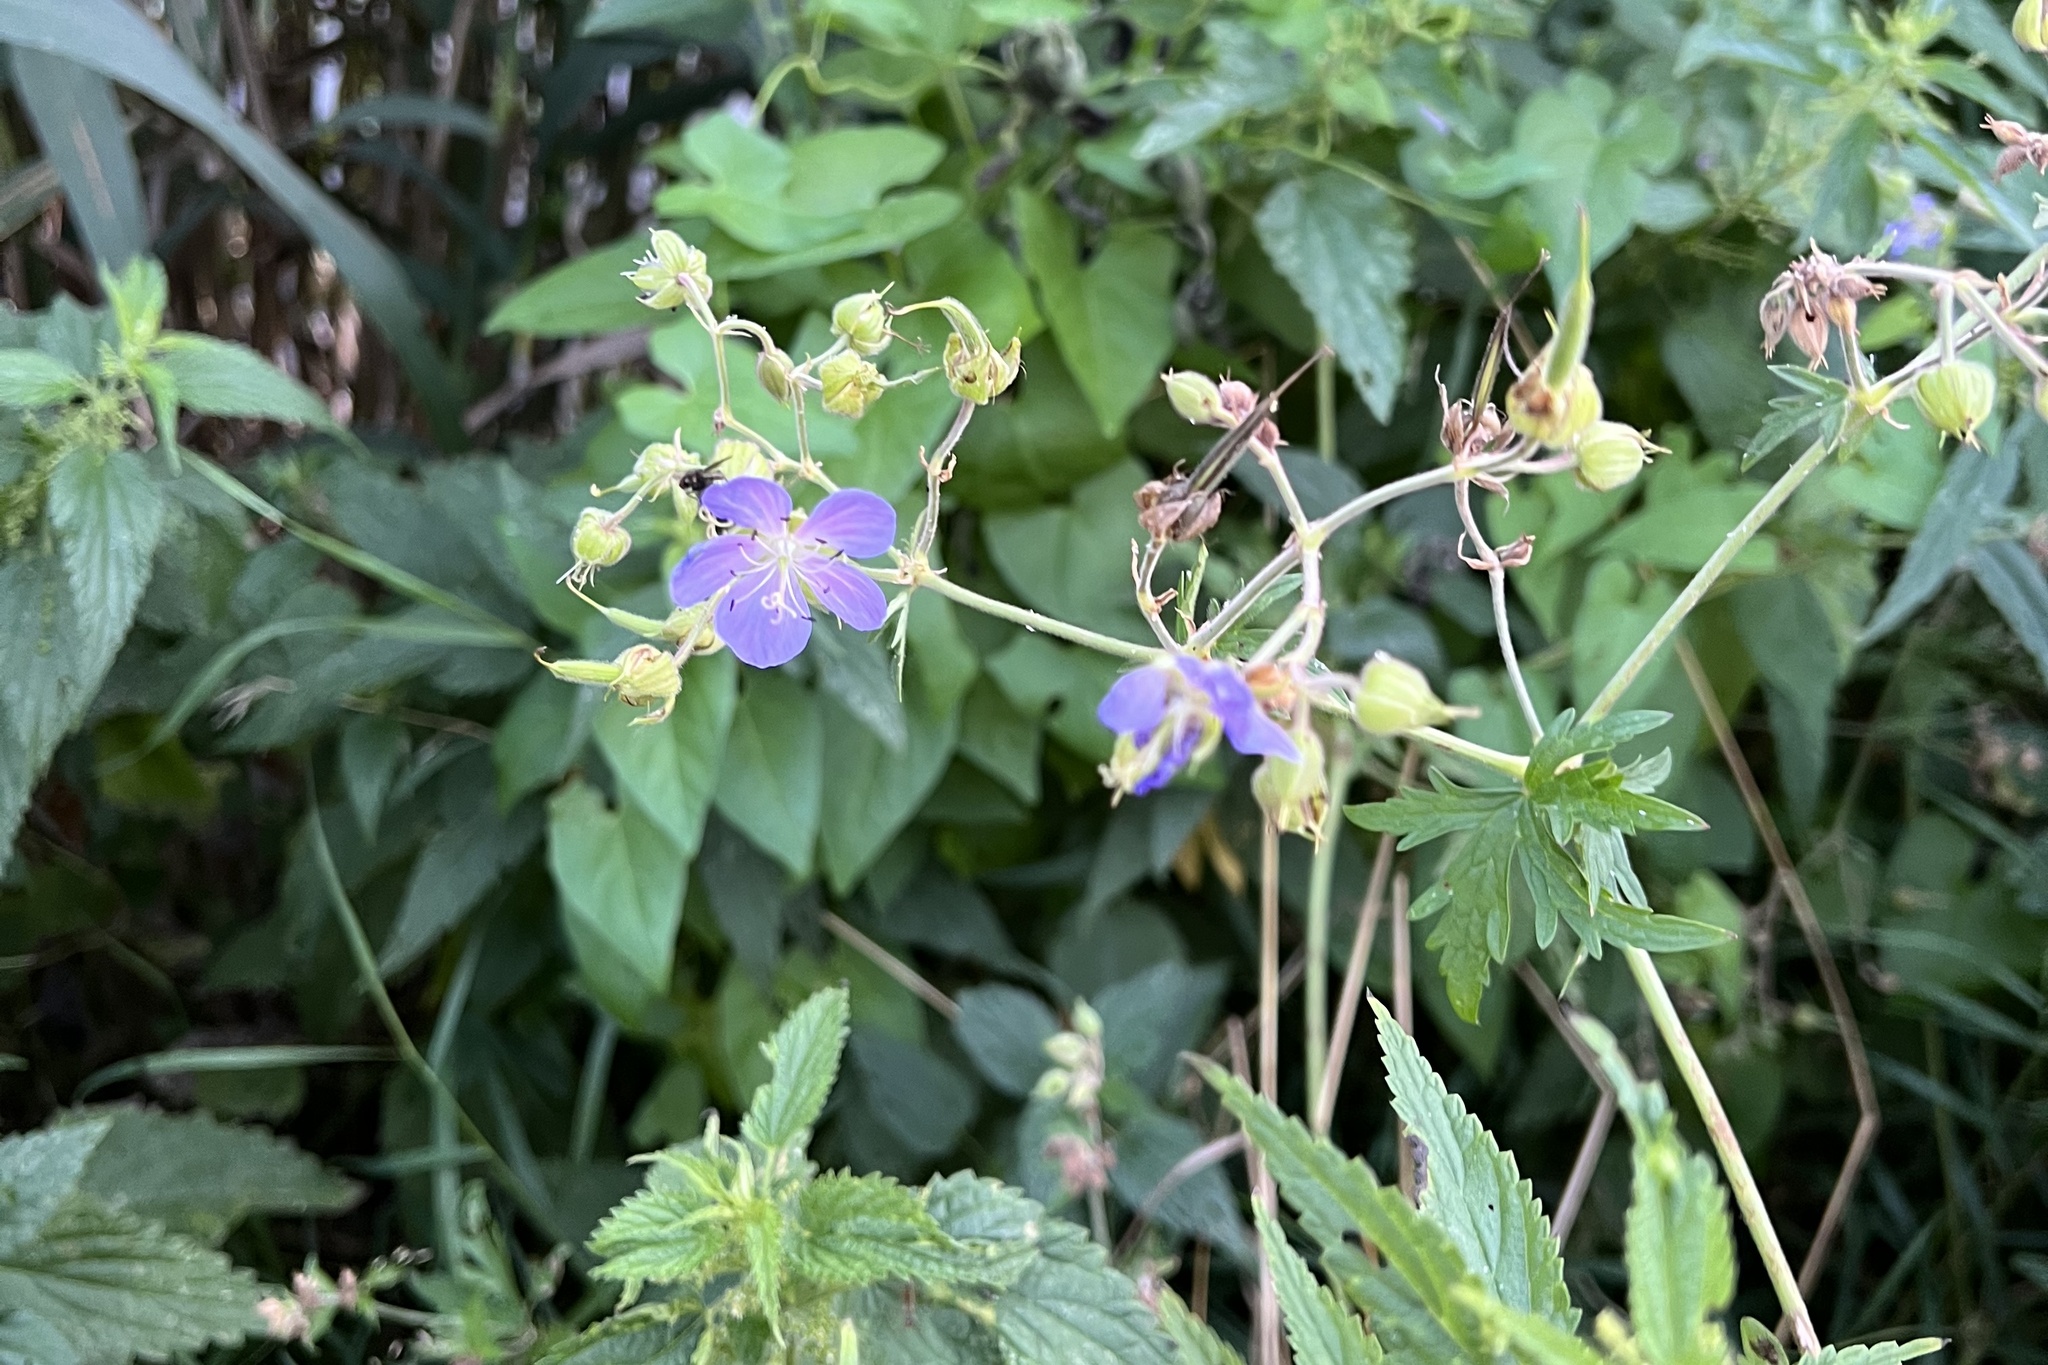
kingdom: Plantae
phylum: Tracheophyta
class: Magnoliopsida
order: Geraniales
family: Geraniaceae
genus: Geranium
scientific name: Geranium pratense
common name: Meadow crane's-bill
